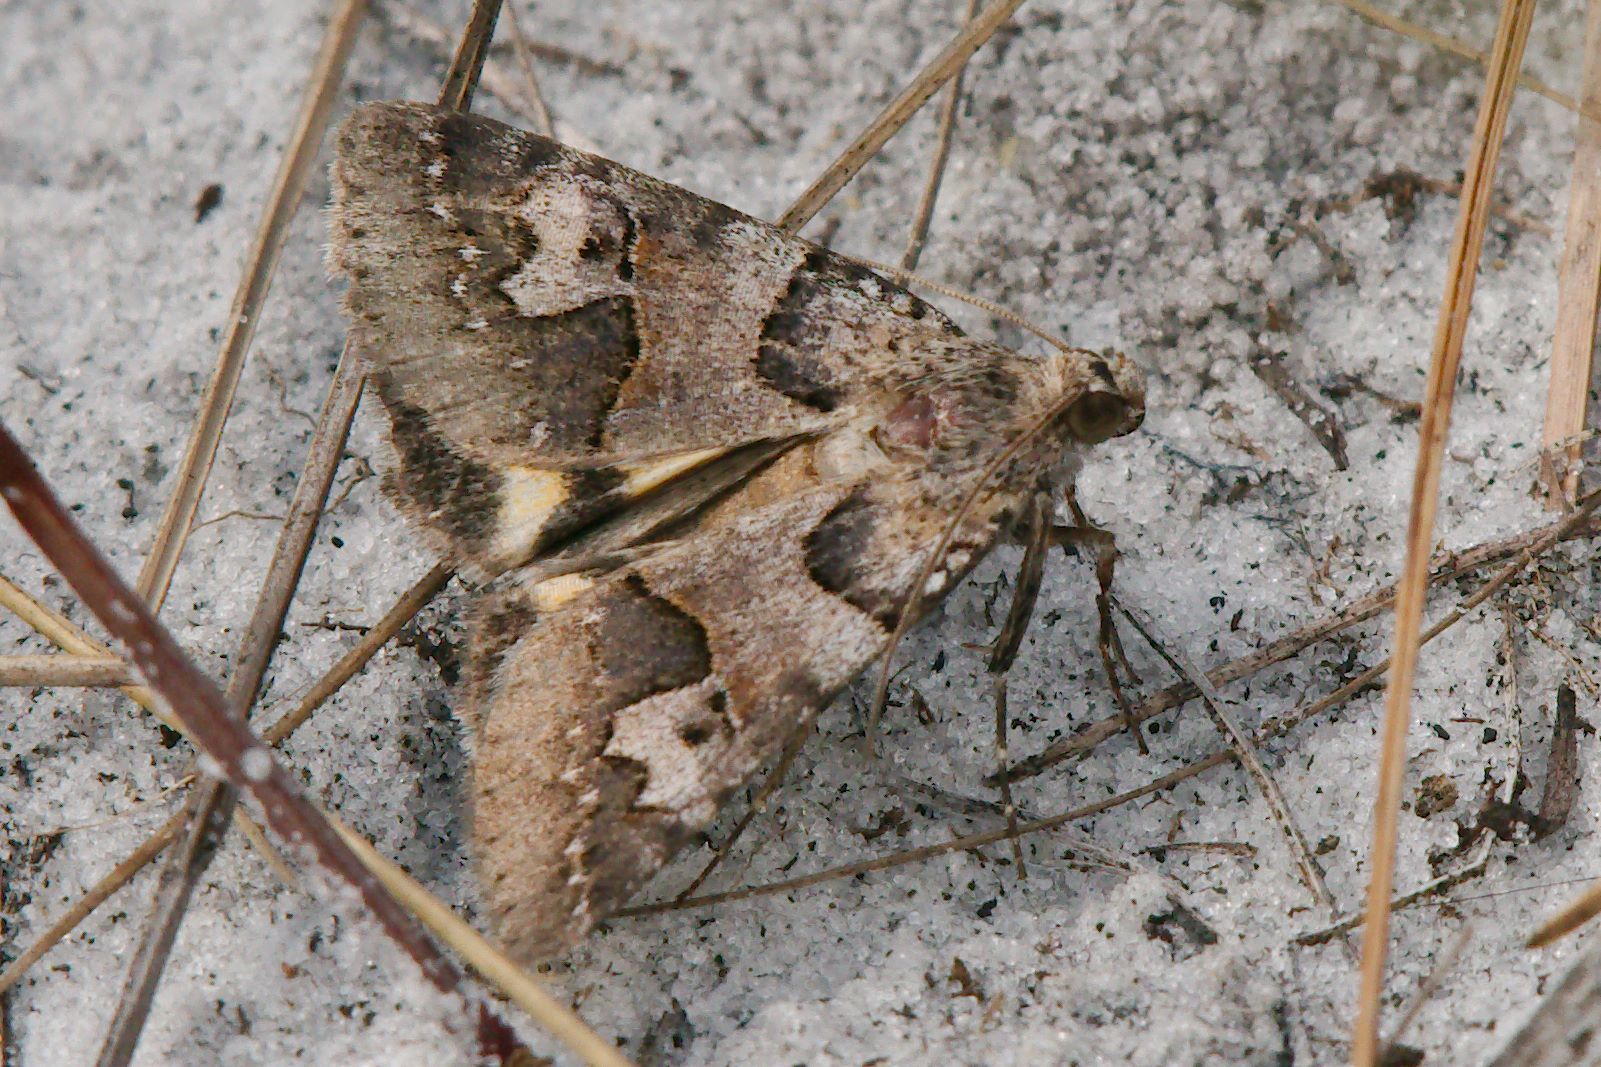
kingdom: Animalia
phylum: Arthropoda
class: Insecta
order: Lepidoptera
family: Erebidae
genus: Drasteria
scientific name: Drasteria graphica
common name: Coastal graphic
